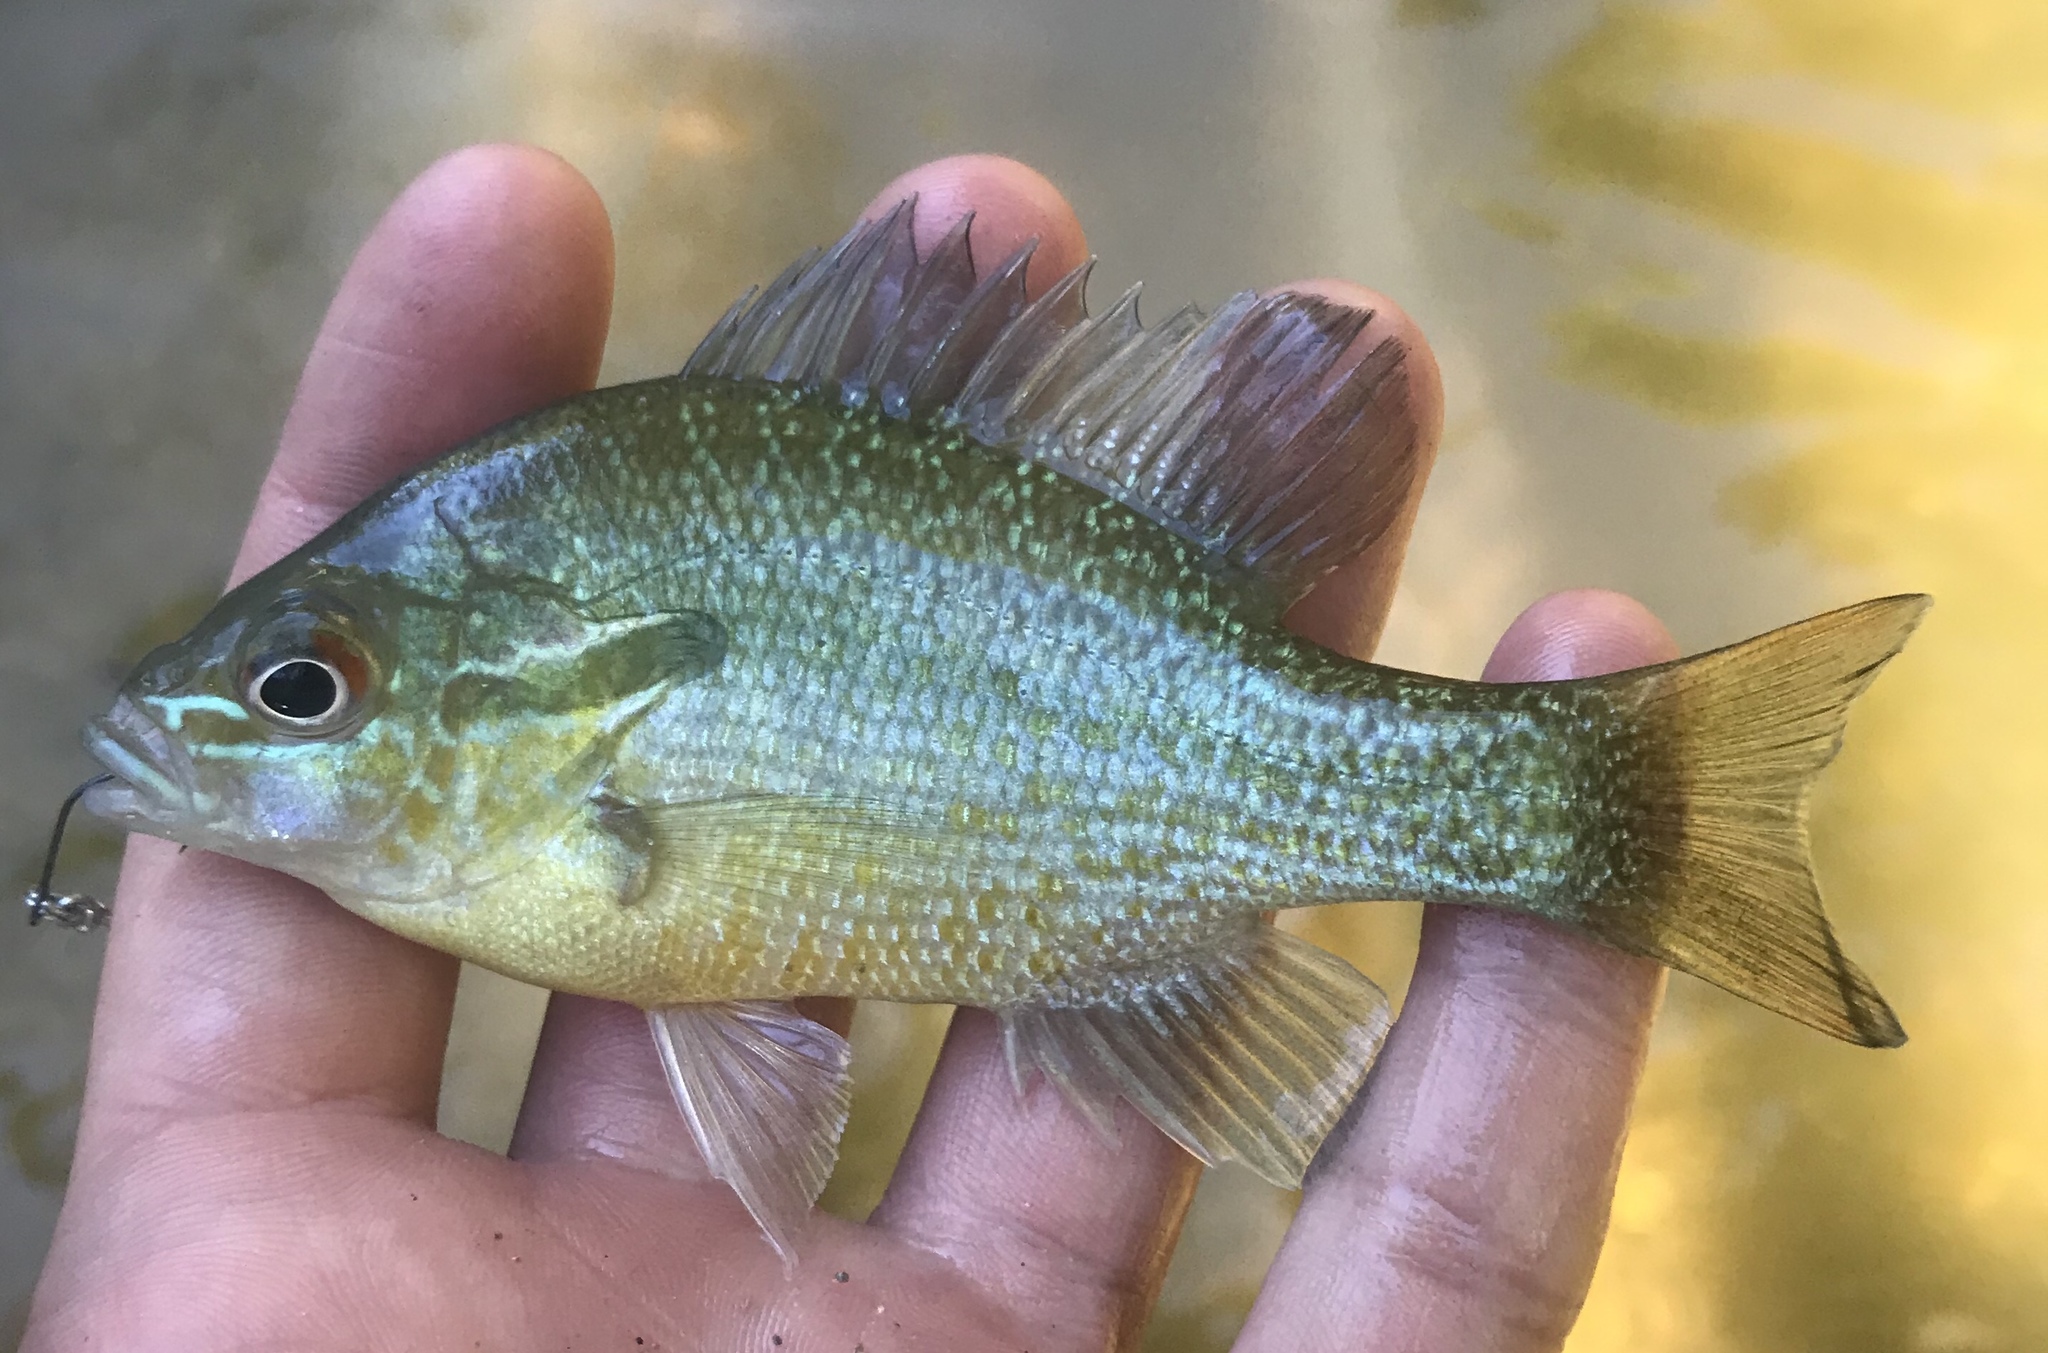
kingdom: Animalia
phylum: Chordata
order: Perciformes
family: Centrarchidae
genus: Lepomis
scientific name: Lepomis auritus
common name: Redbreast sunfish
